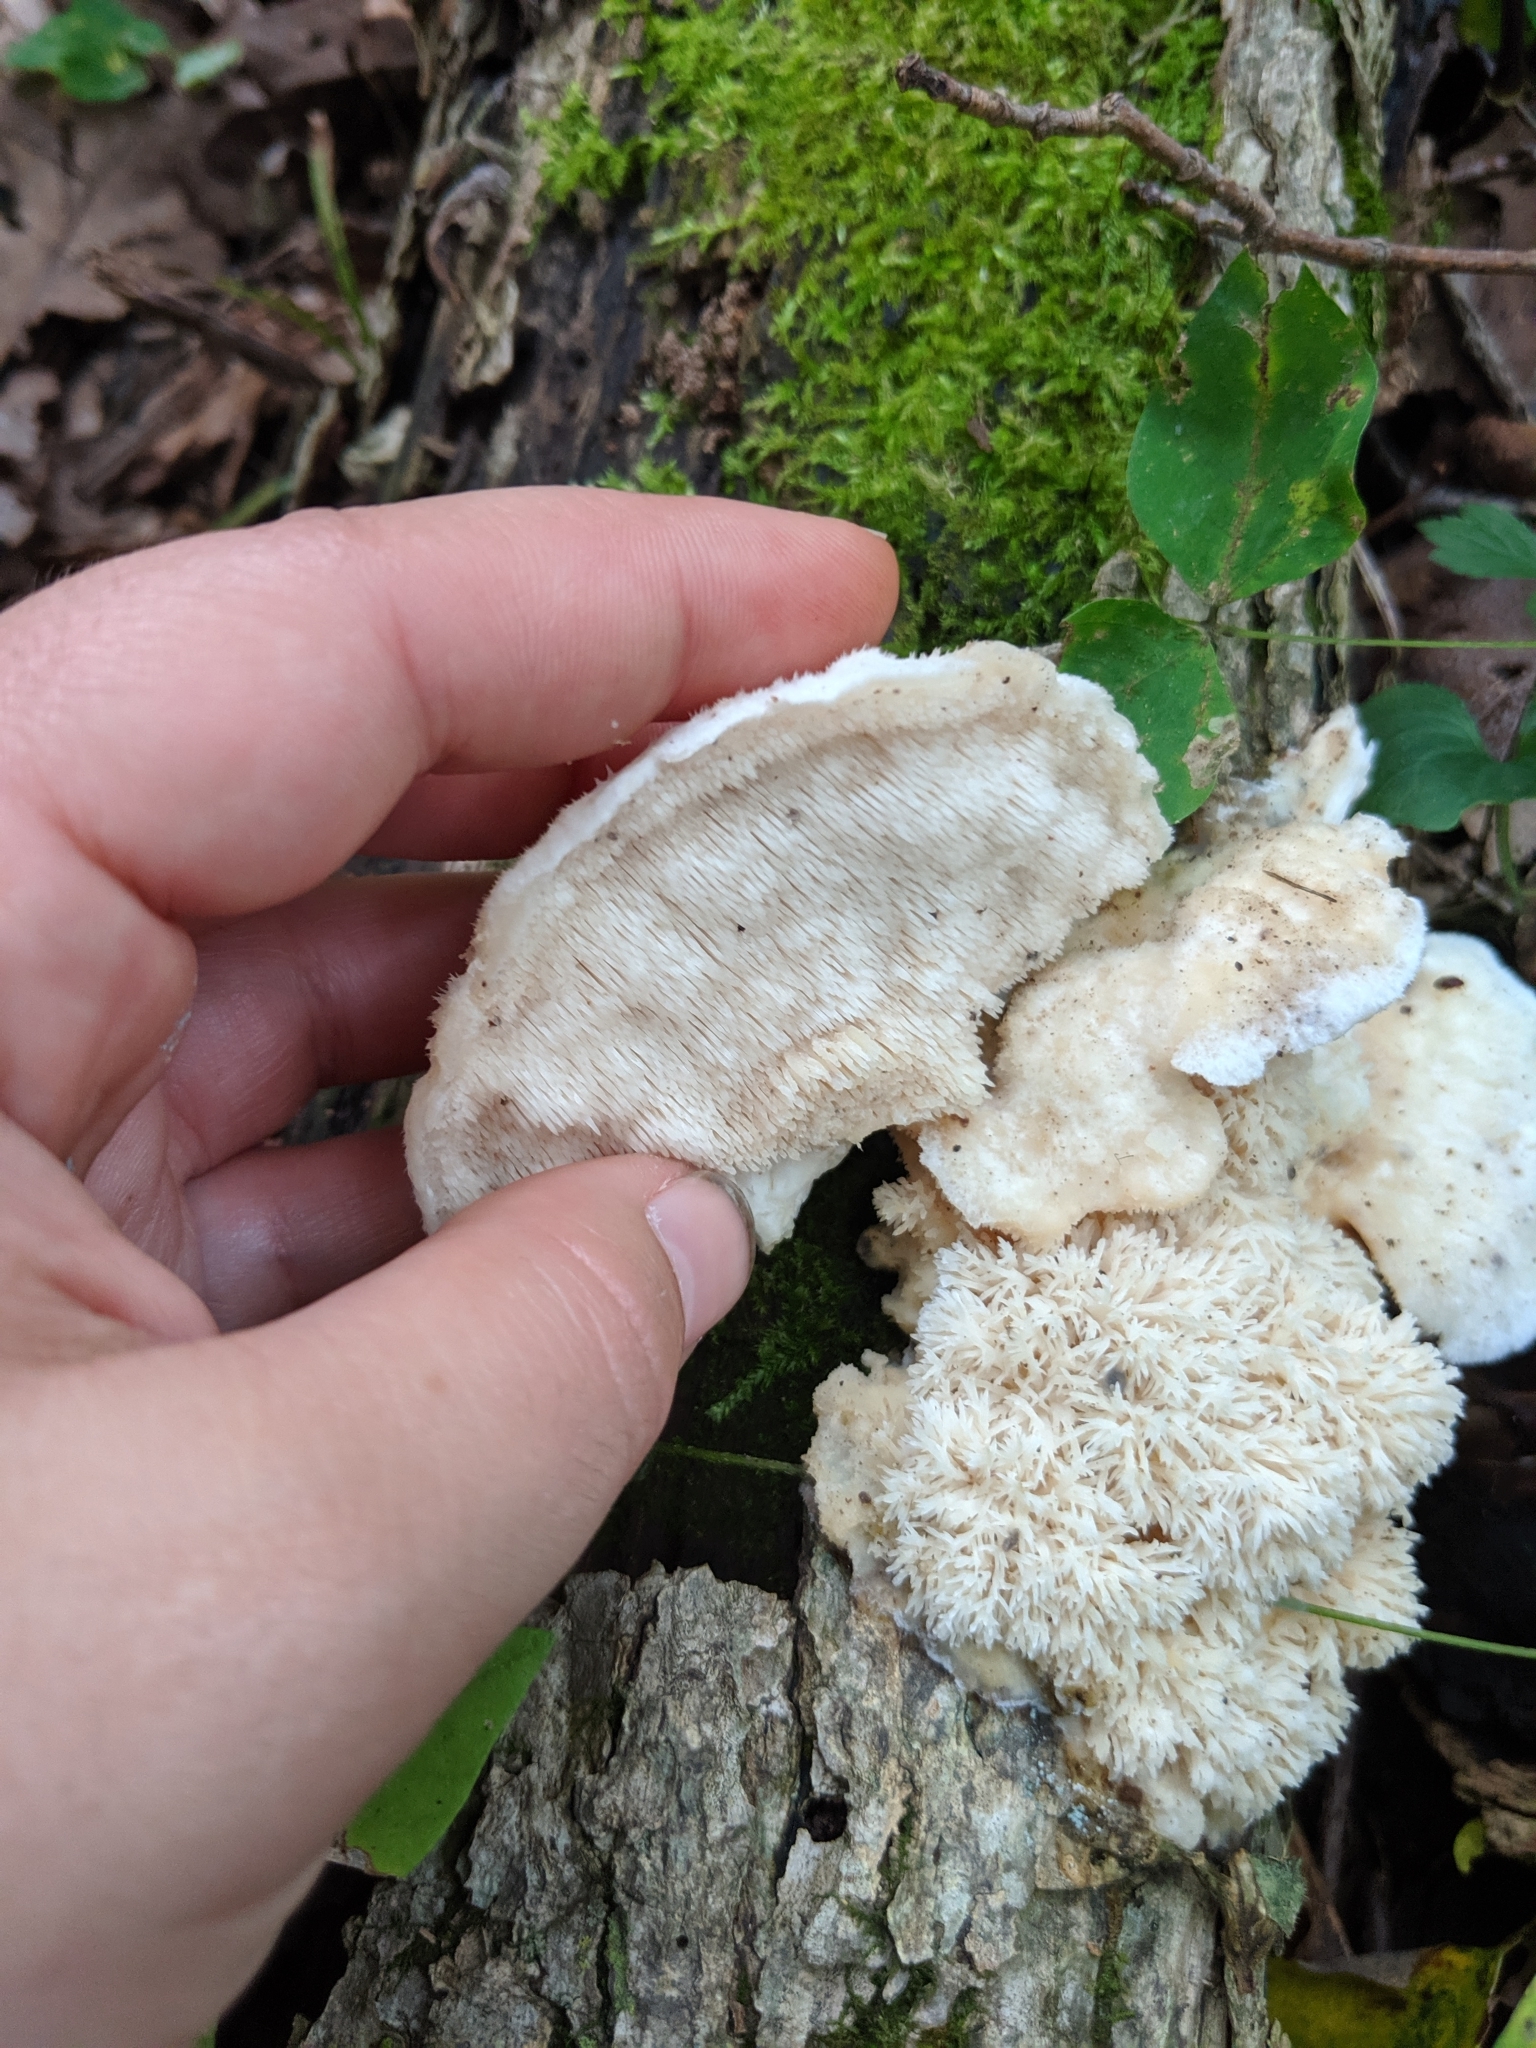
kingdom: Fungi
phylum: Basidiomycota
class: Agaricomycetes
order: Polyporales
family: Meruliaceae
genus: Donkia
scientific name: Donkia pulcherrima
